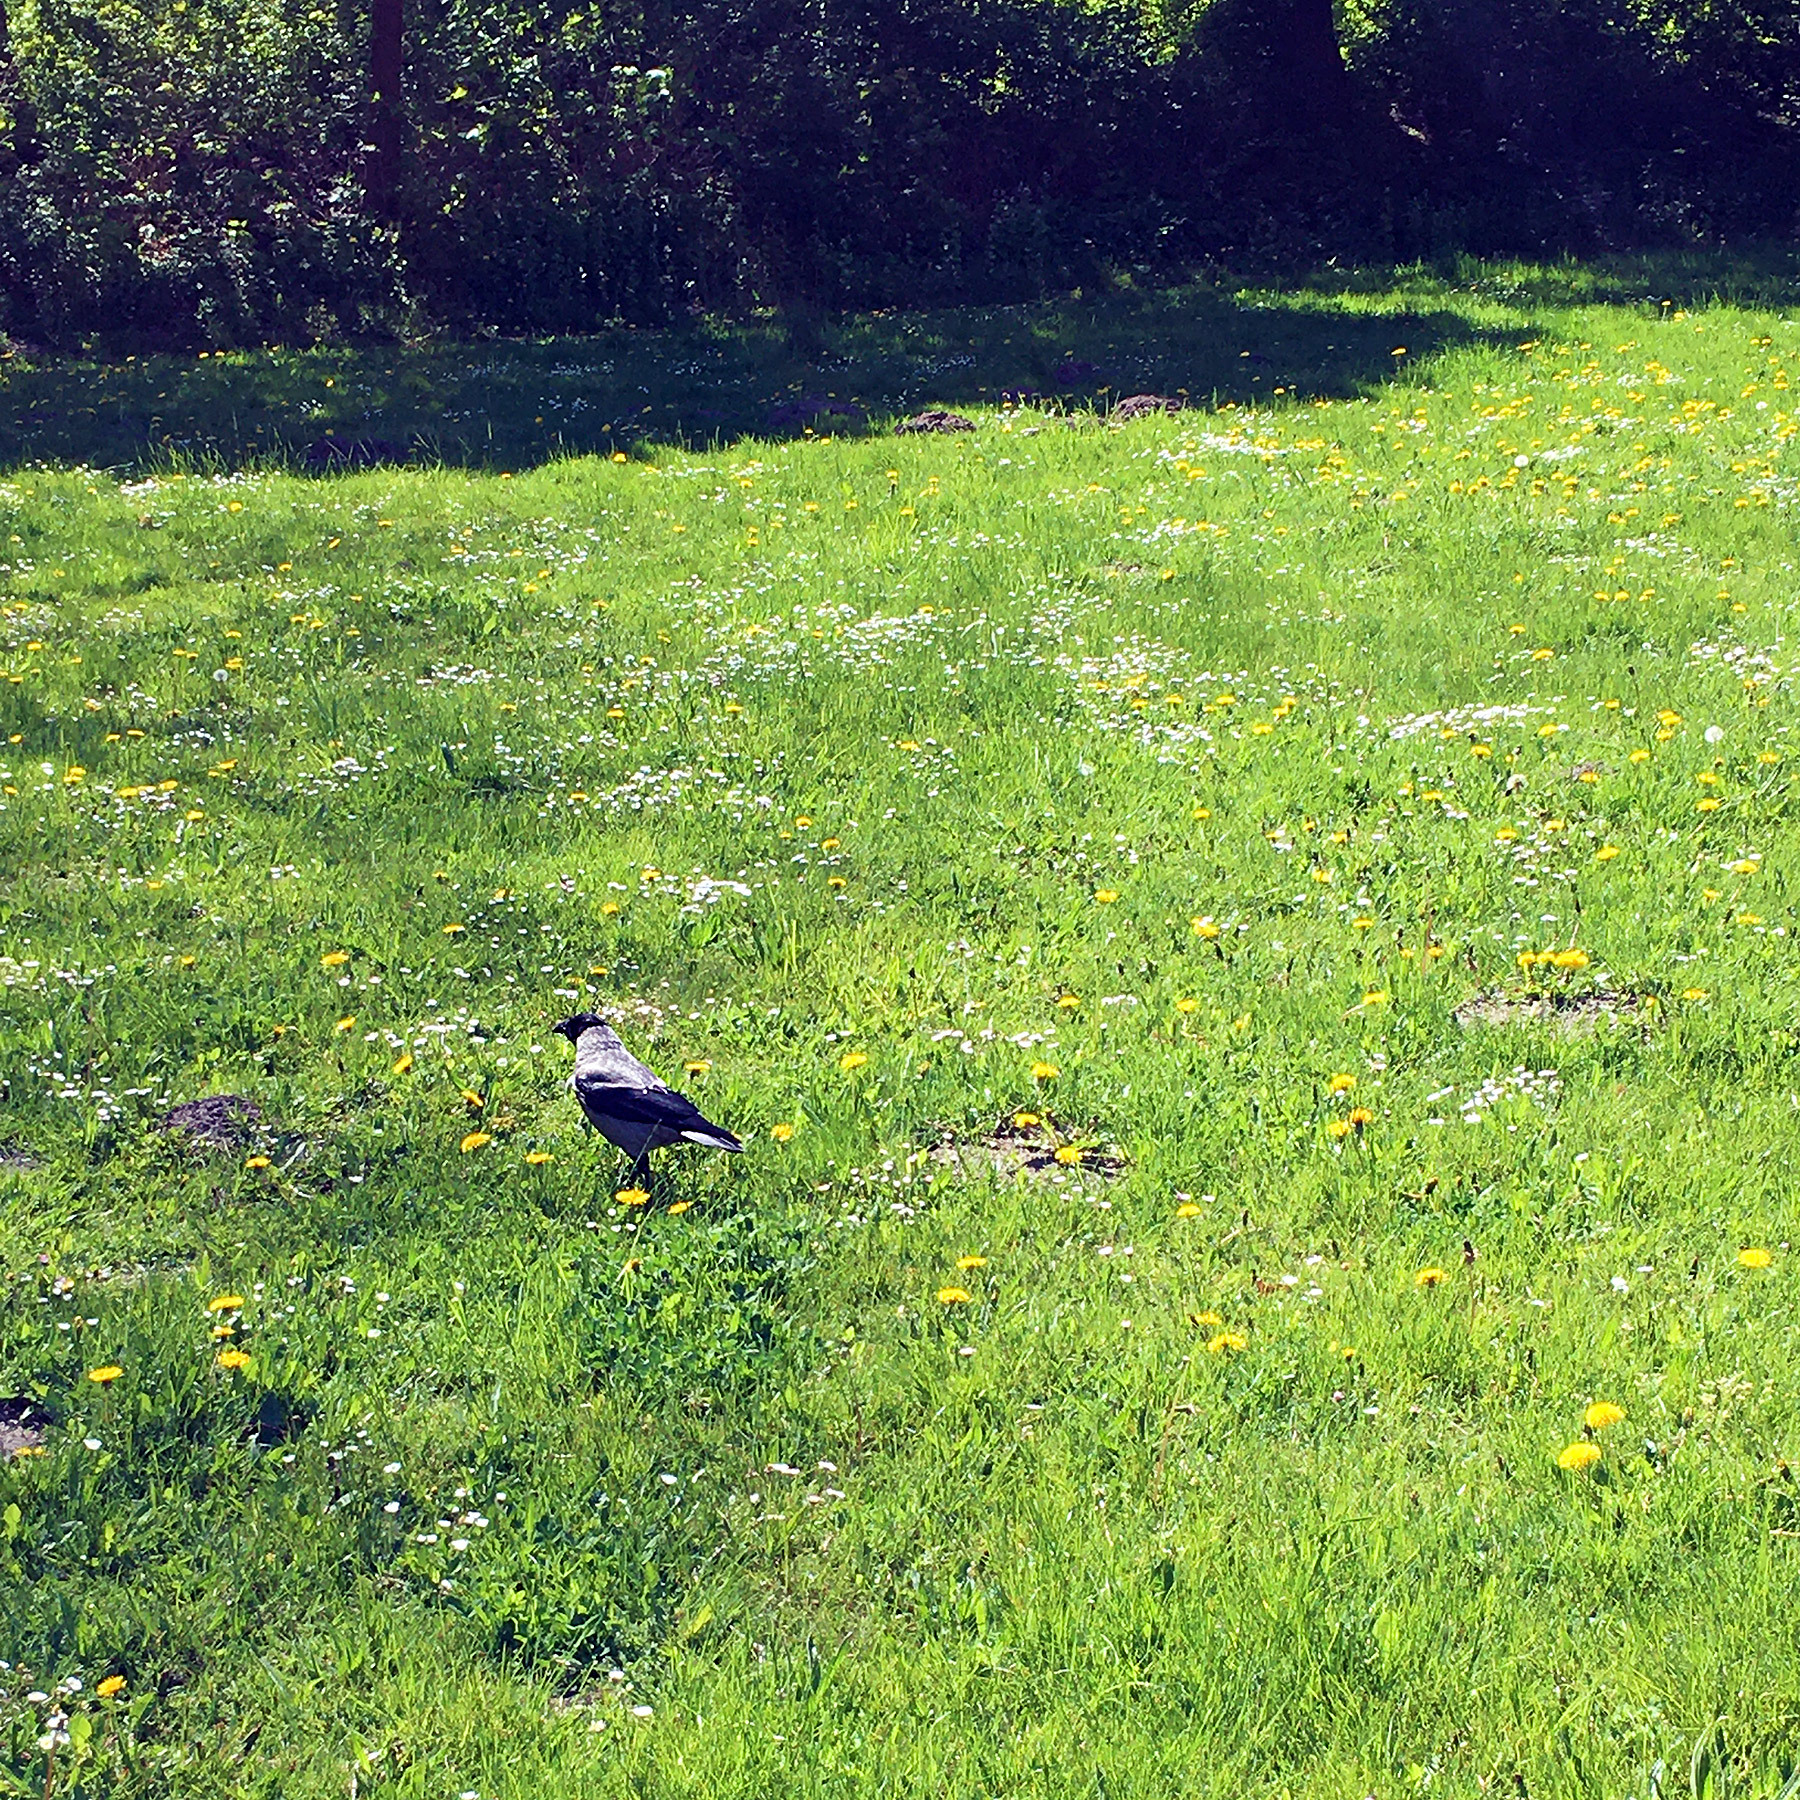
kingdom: Animalia
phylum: Chordata
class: Aves
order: Passeriformes
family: Corvidae
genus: Corvus
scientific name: Corvus cornix
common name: Hooded crow
